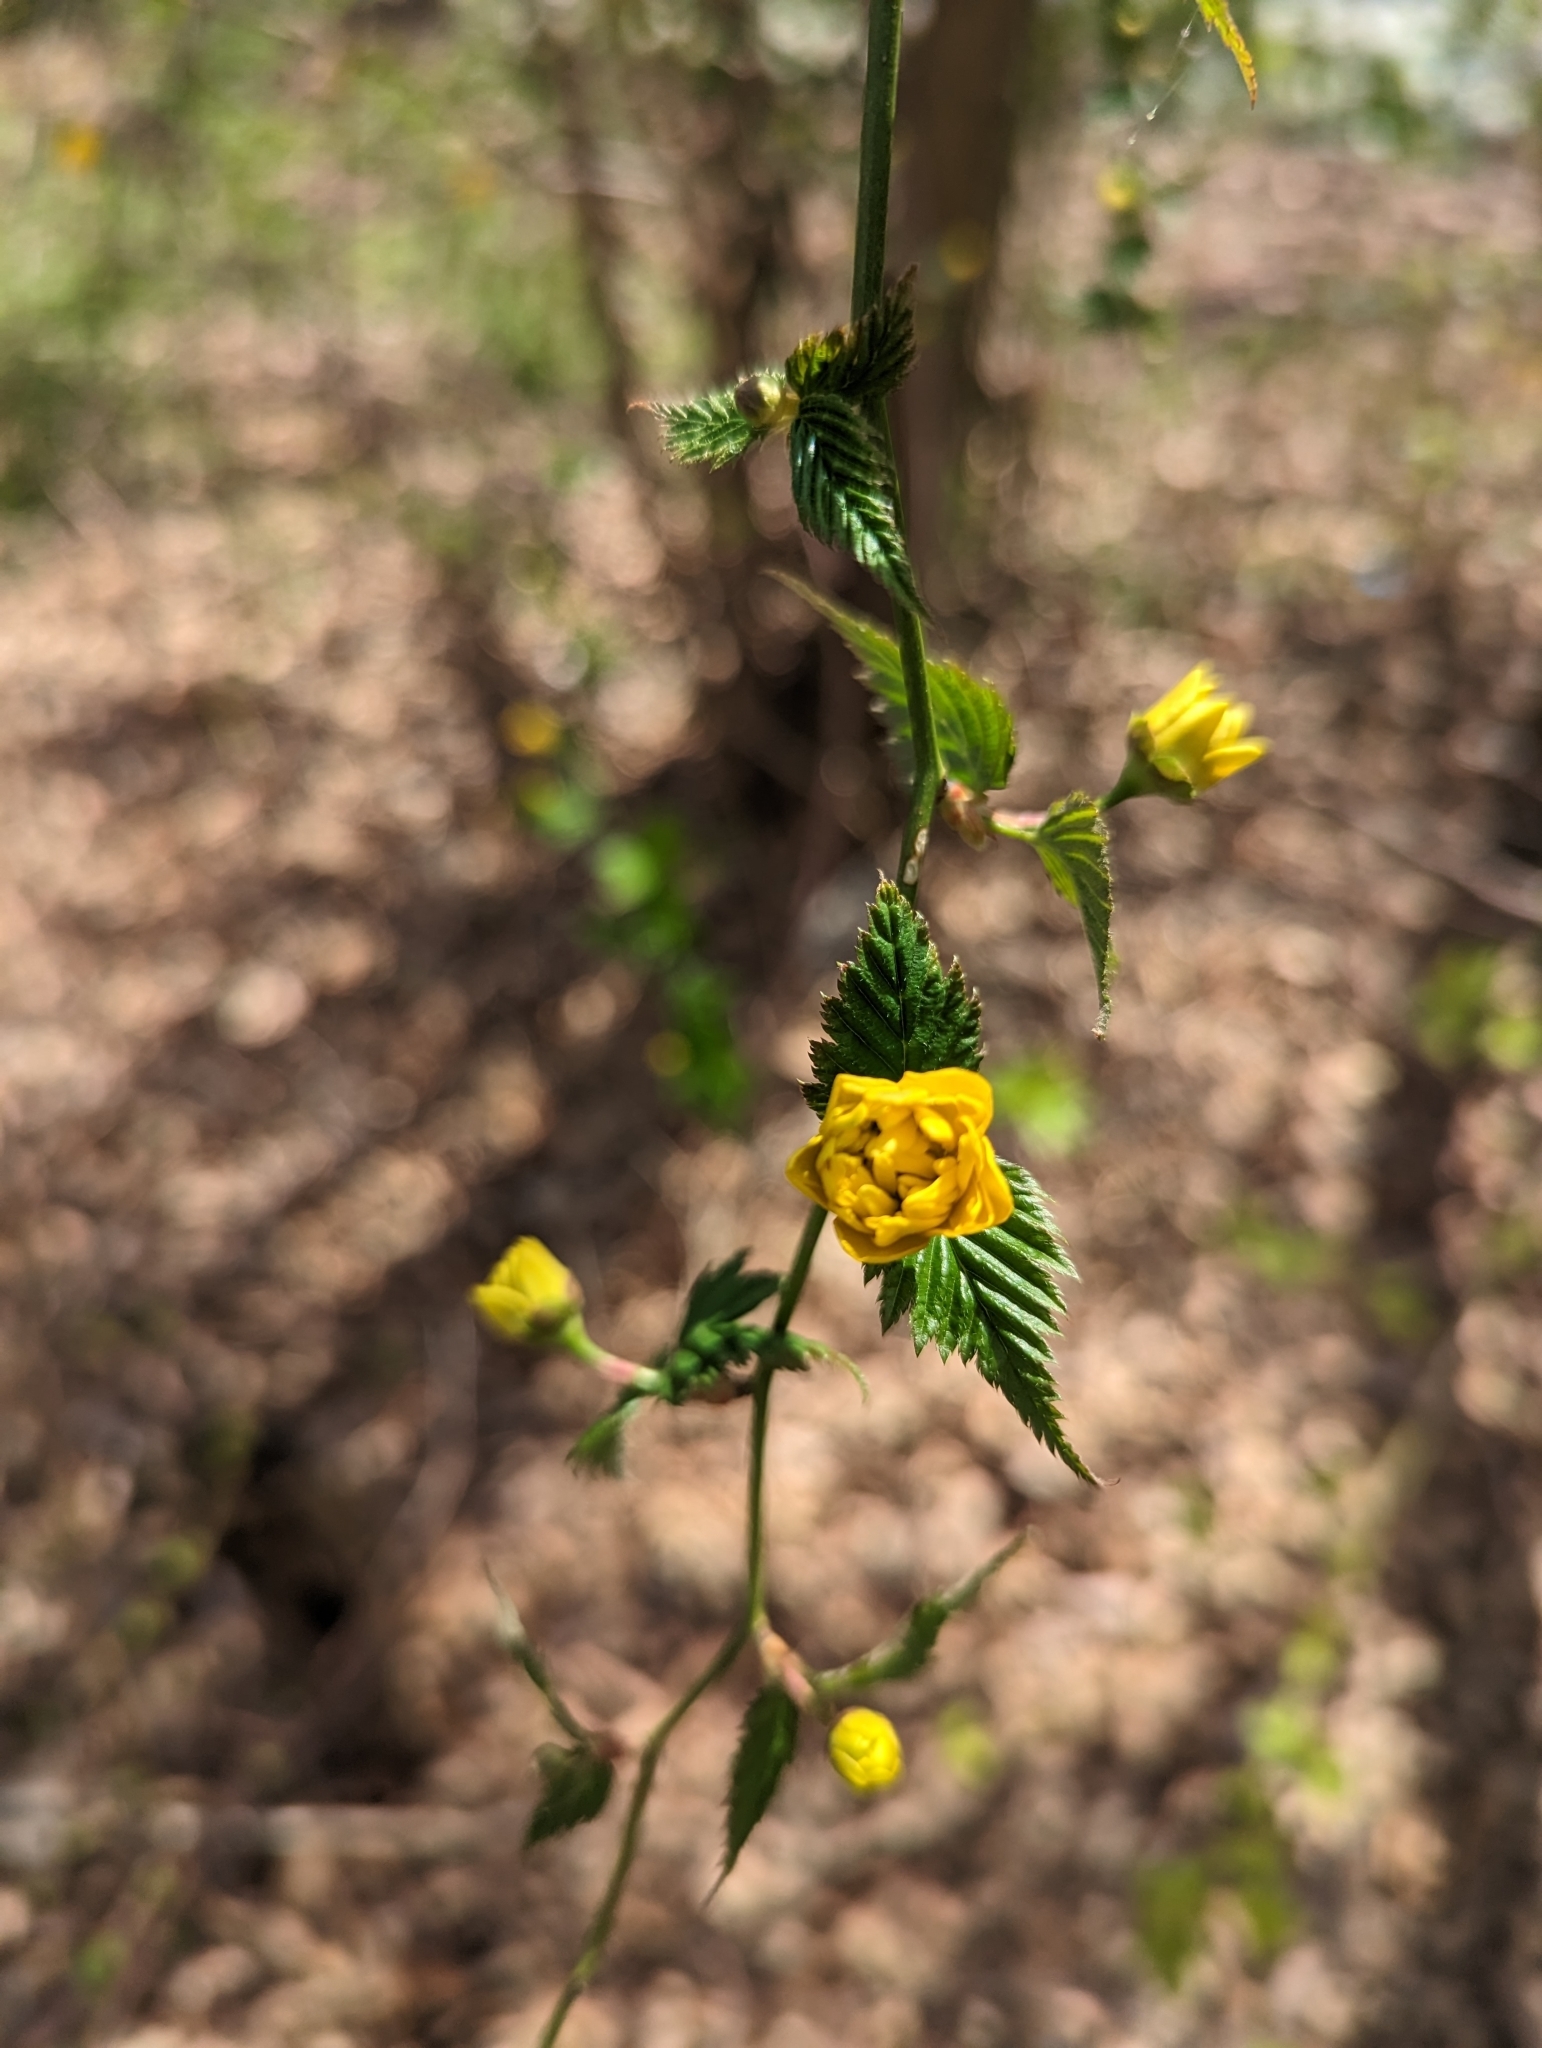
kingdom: Plantae
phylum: Tracheophyta
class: Magnoliopsida
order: Rosales
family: Rosaceae
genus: Kerria
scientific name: Kerria japonica
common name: Japanese kerria
